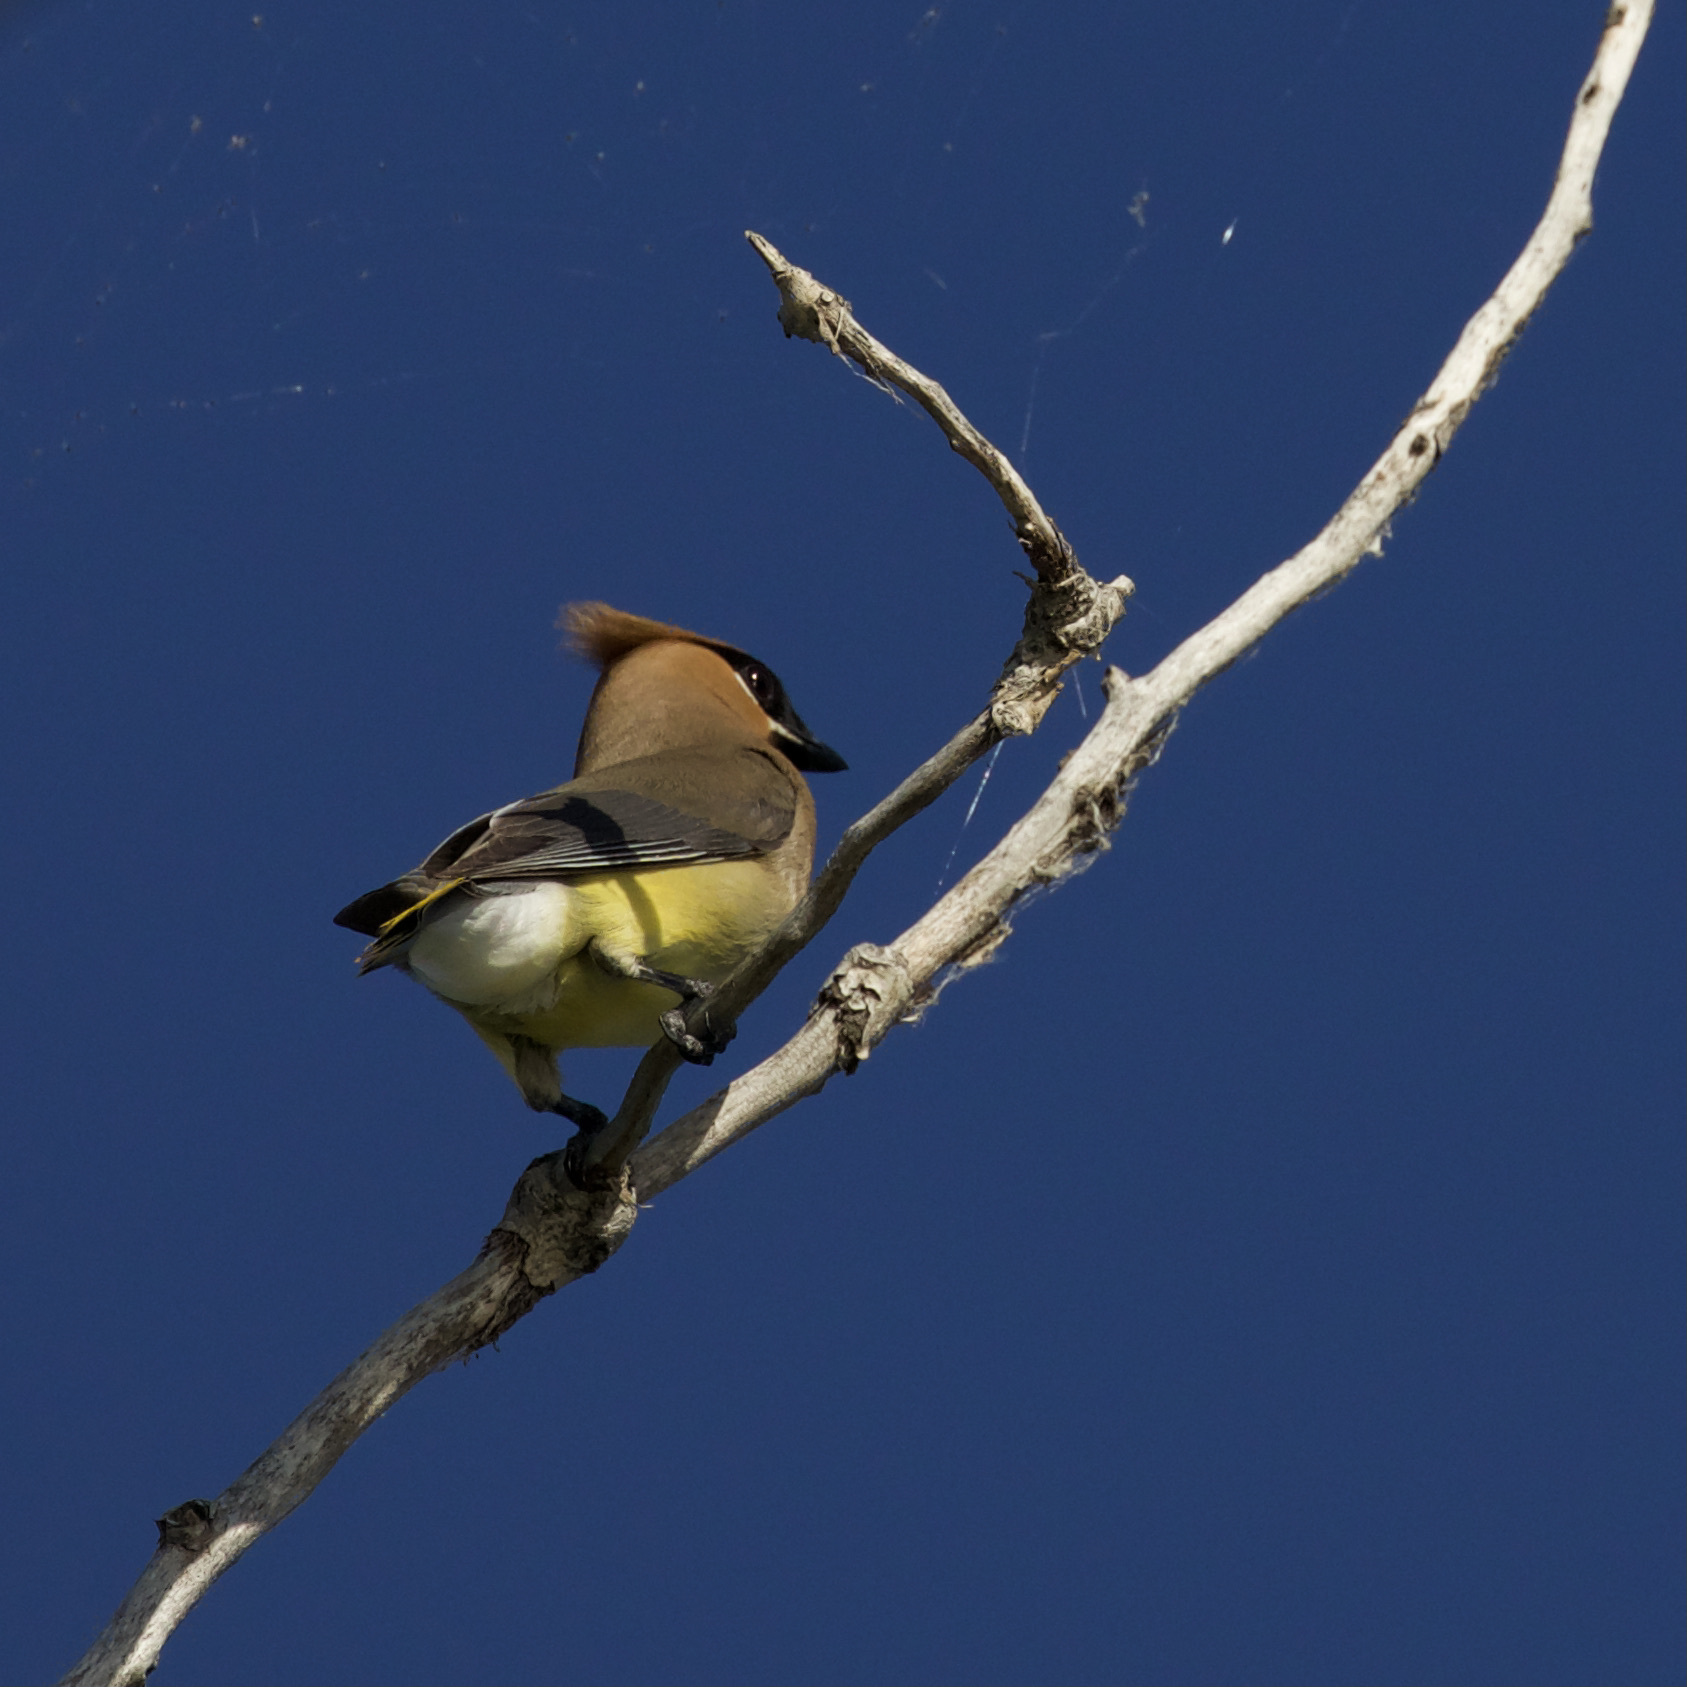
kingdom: Animalia
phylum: Chordata
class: Aves
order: Passeriformes
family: Bombycillidae
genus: Bombycilla
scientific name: Bombycilla cedrorum
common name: Cedar waxwing
